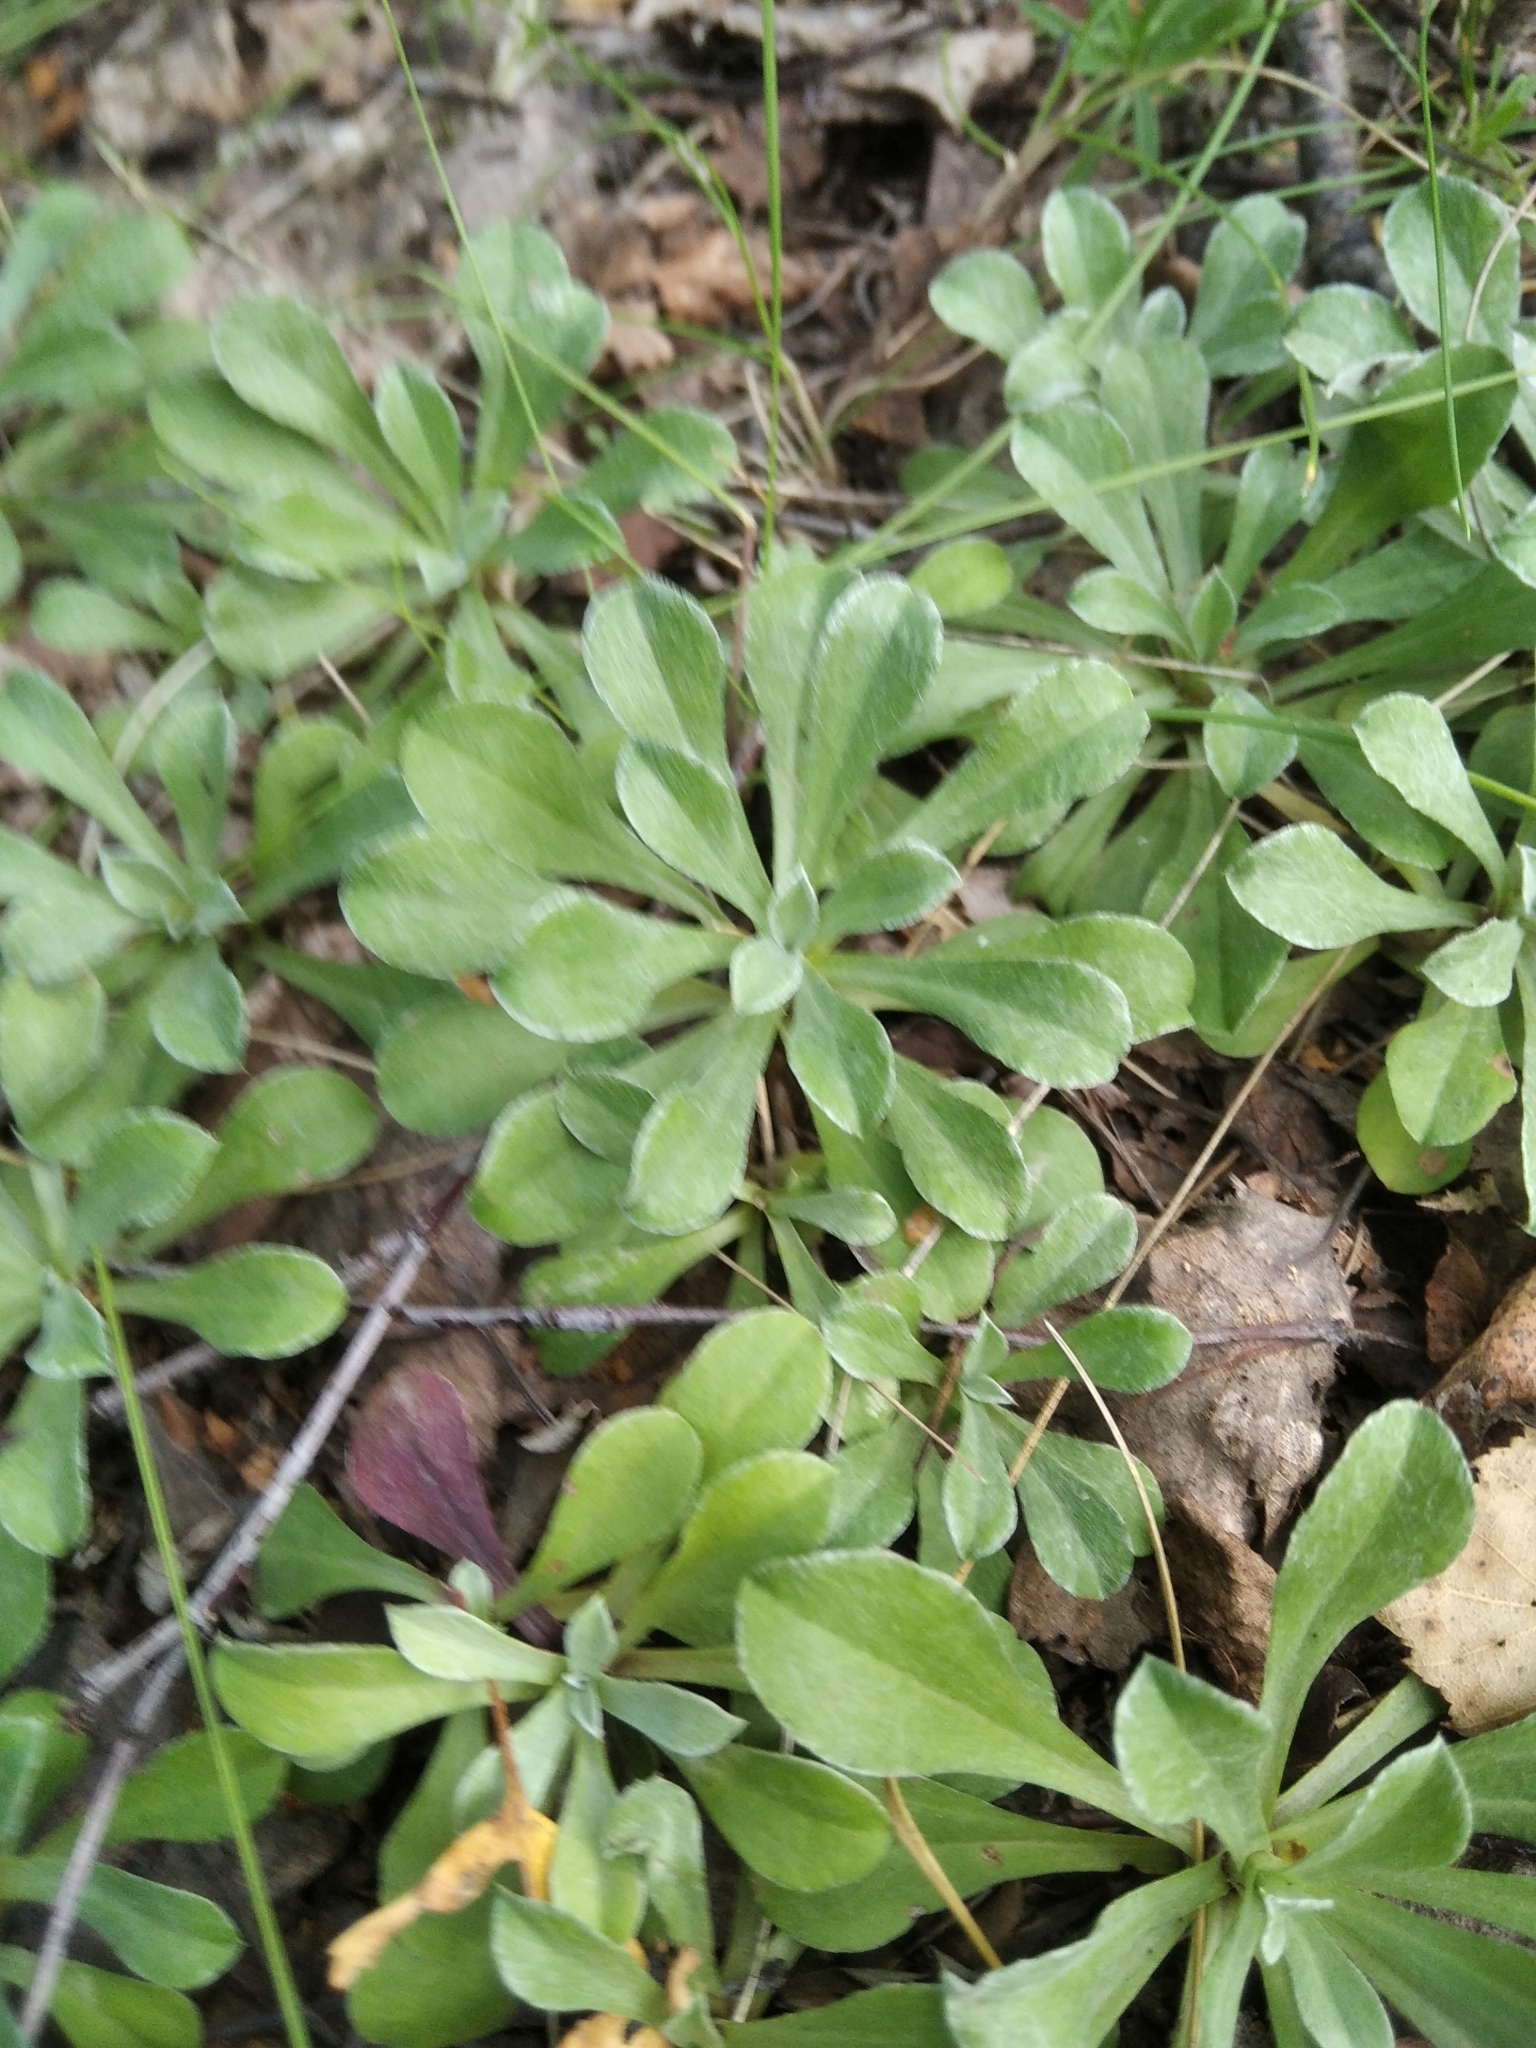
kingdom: Plantae
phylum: Tracheophyta
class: Magnoliopsida
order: Asterales
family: Asteraceae
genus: Antennaria
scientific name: Antennaria dioica
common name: Mountain everlasting
